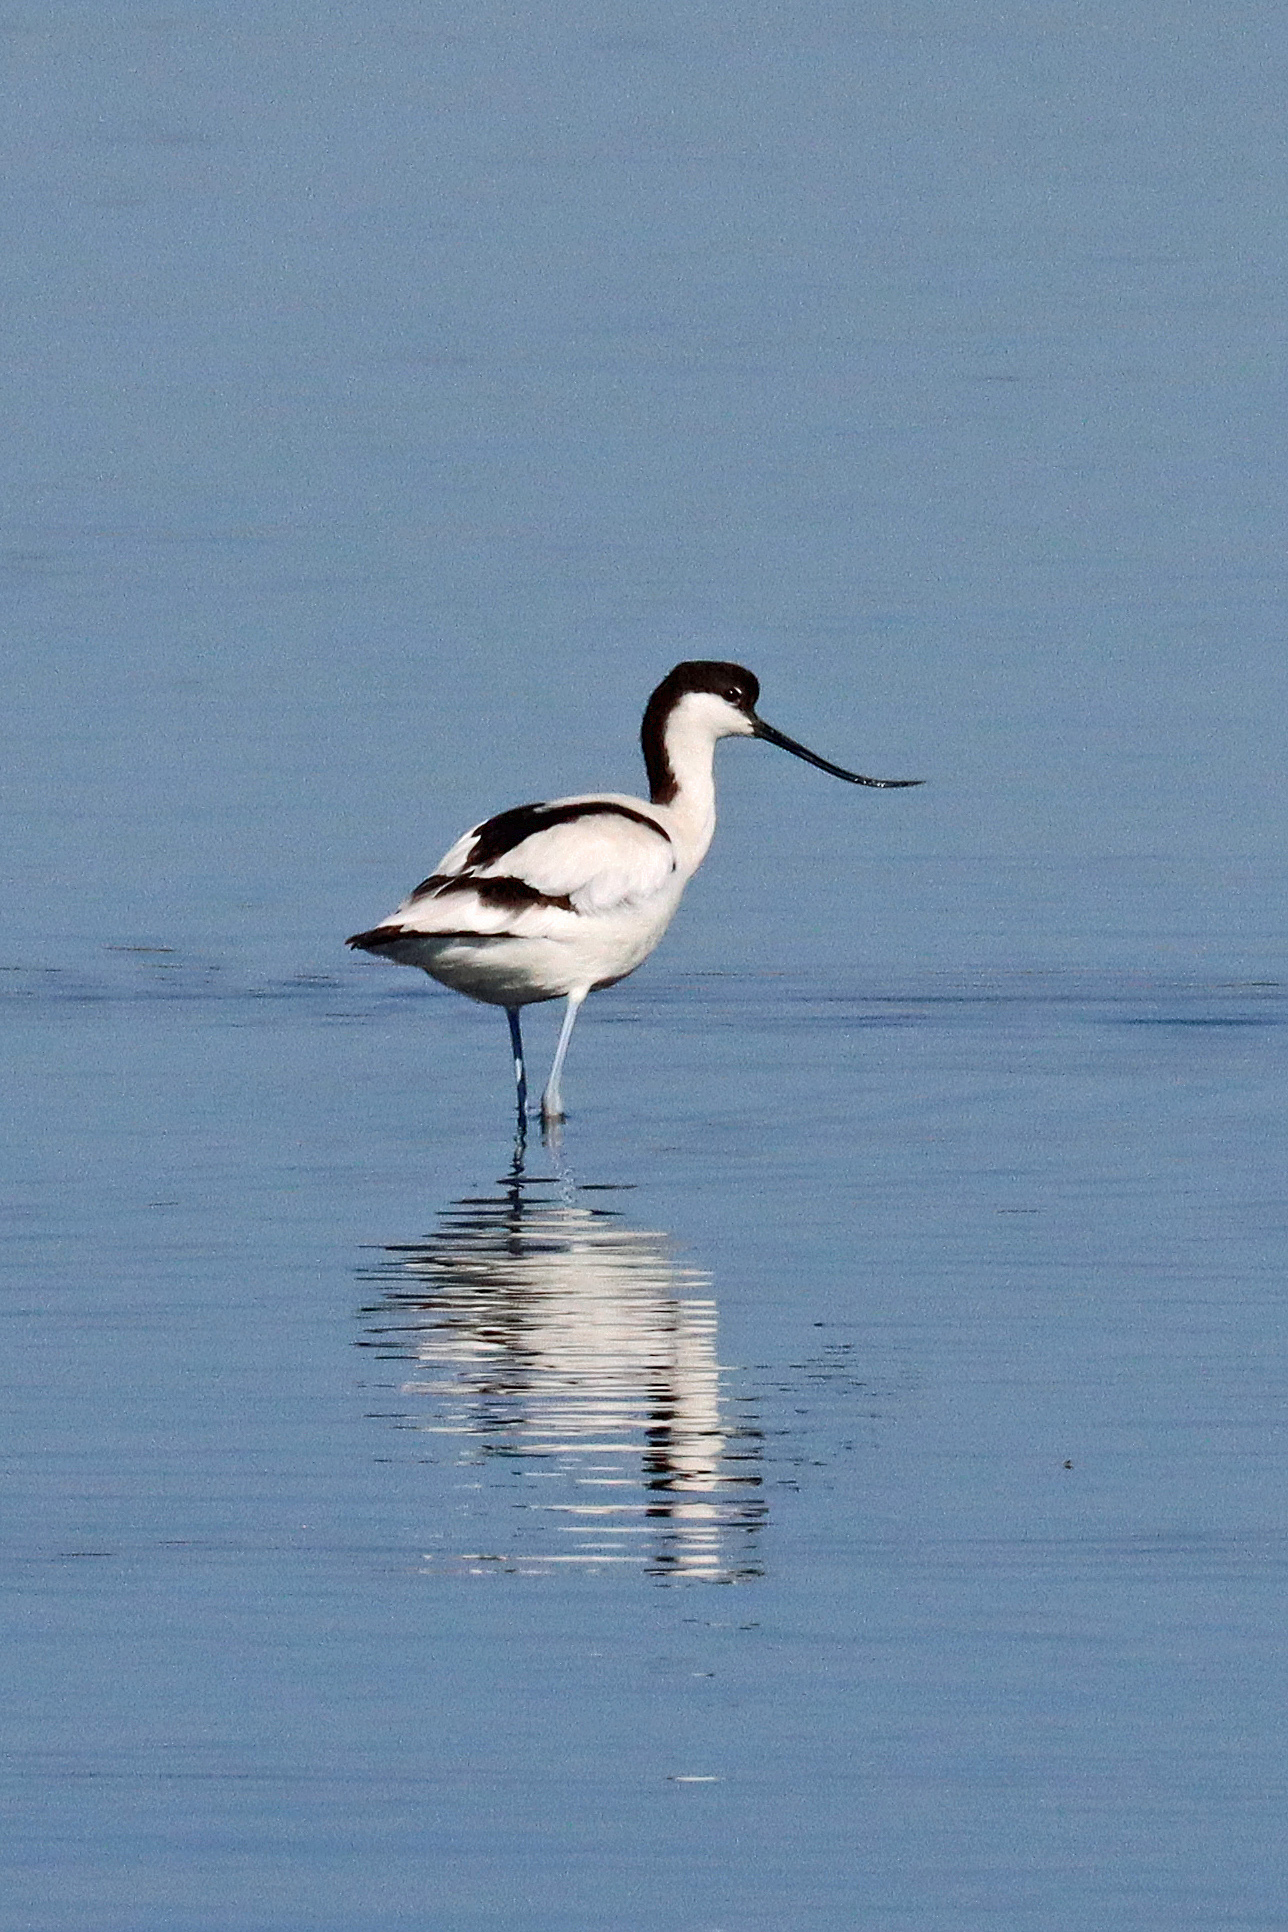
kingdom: Animalia
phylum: Chordata
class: Aves
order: Charadriiformes
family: Recurvirostridae
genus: Recurvirostra
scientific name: Recurvirostra avosetta
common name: Pied avocet
